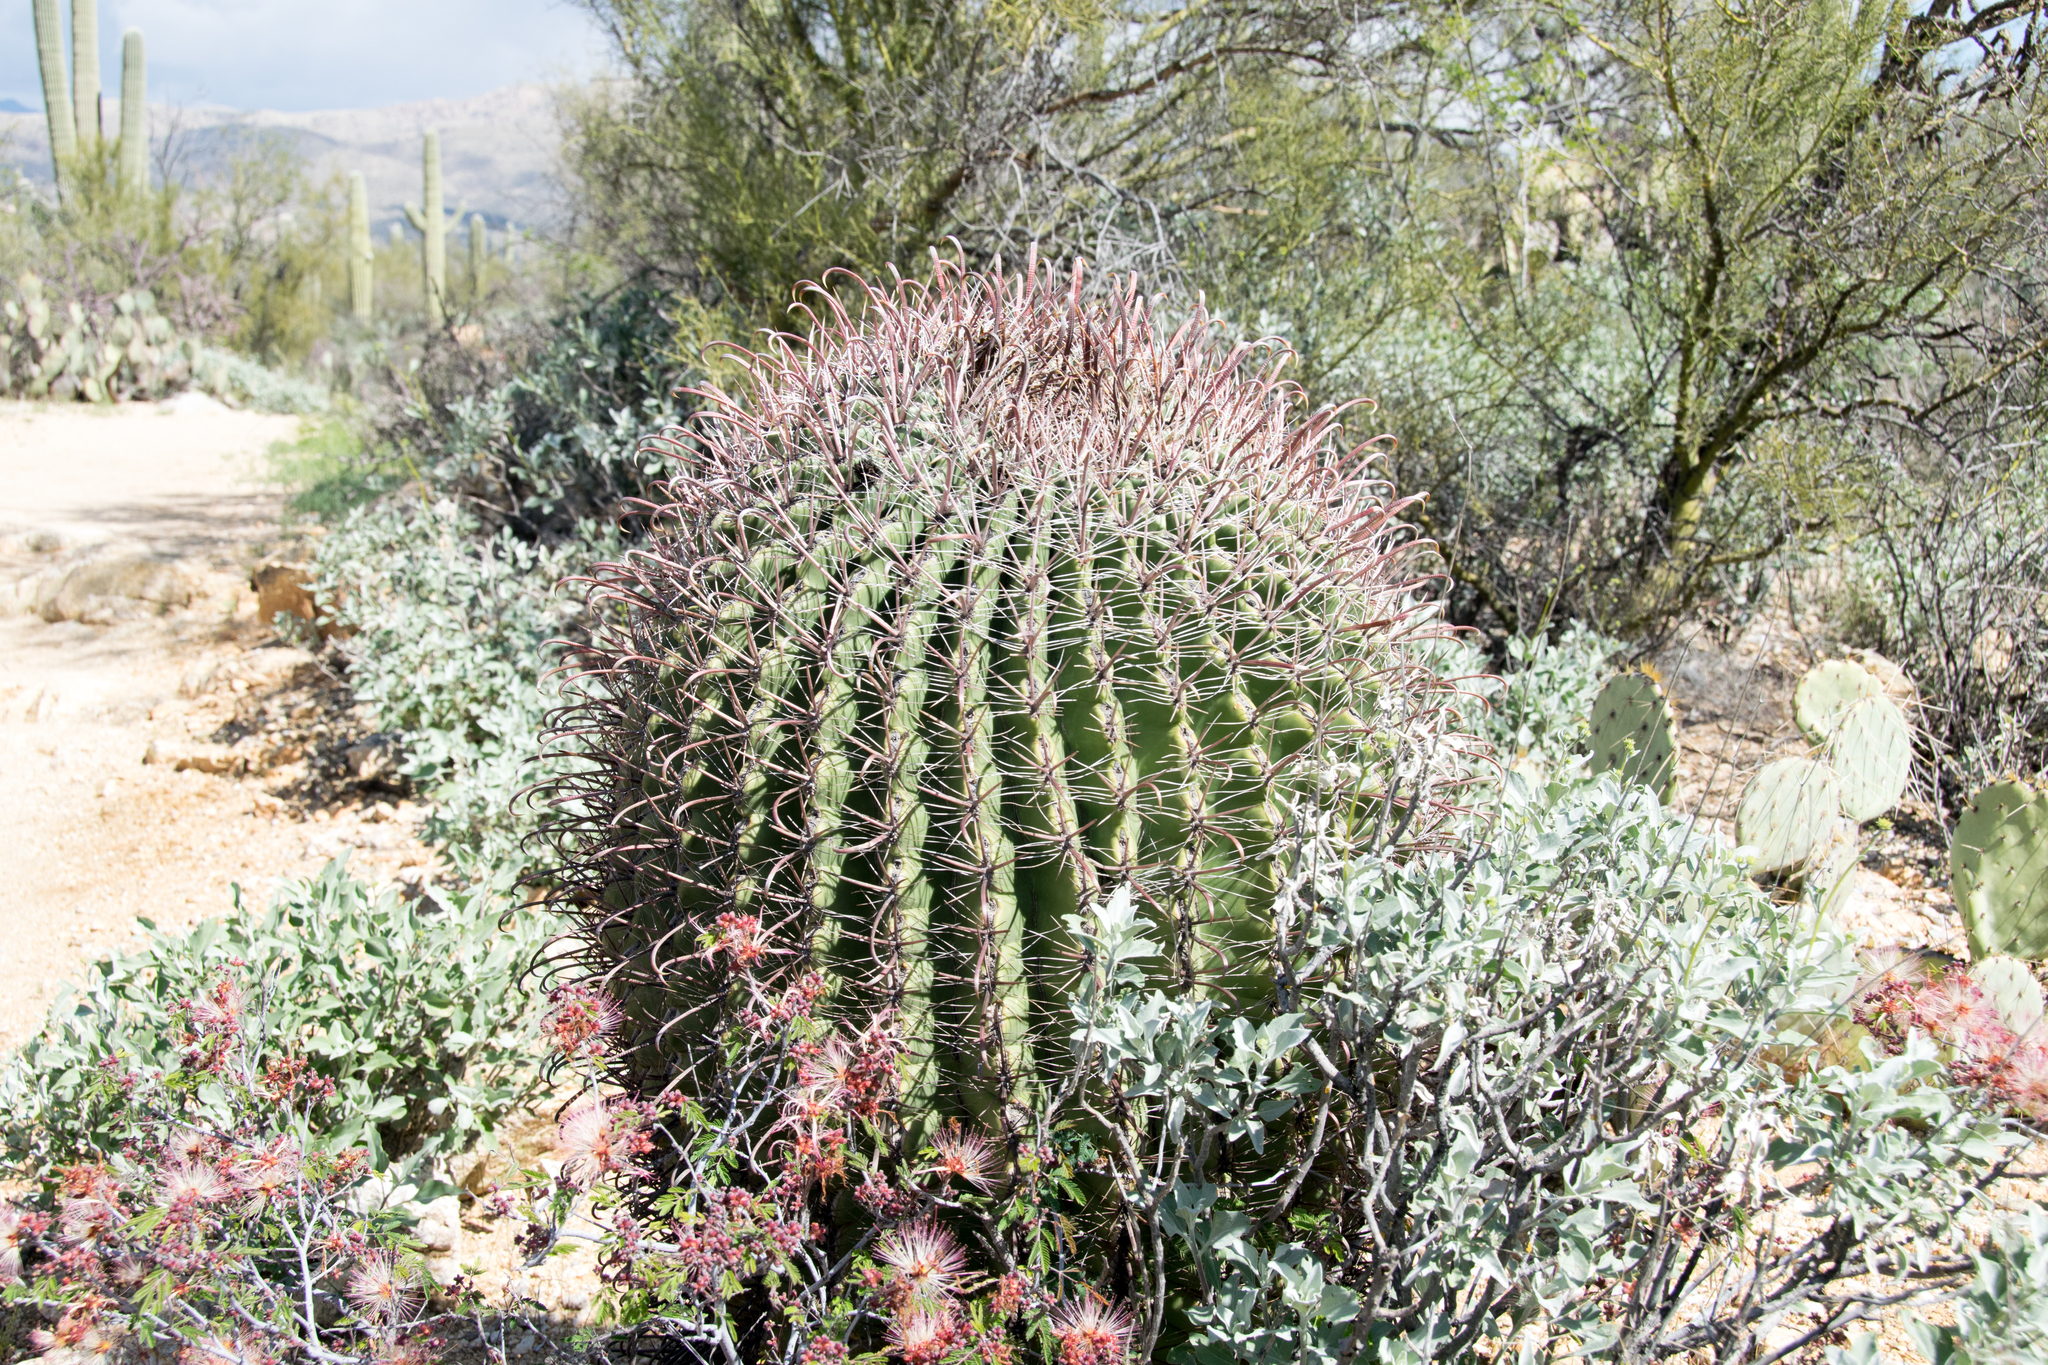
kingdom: Plantae
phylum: Tracheophyta
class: Magnoliopsida
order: Caryophyllales
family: Cactaceae
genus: Ferocactus
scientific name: Ferocactus wislizeni
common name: Candy barrel cactus
